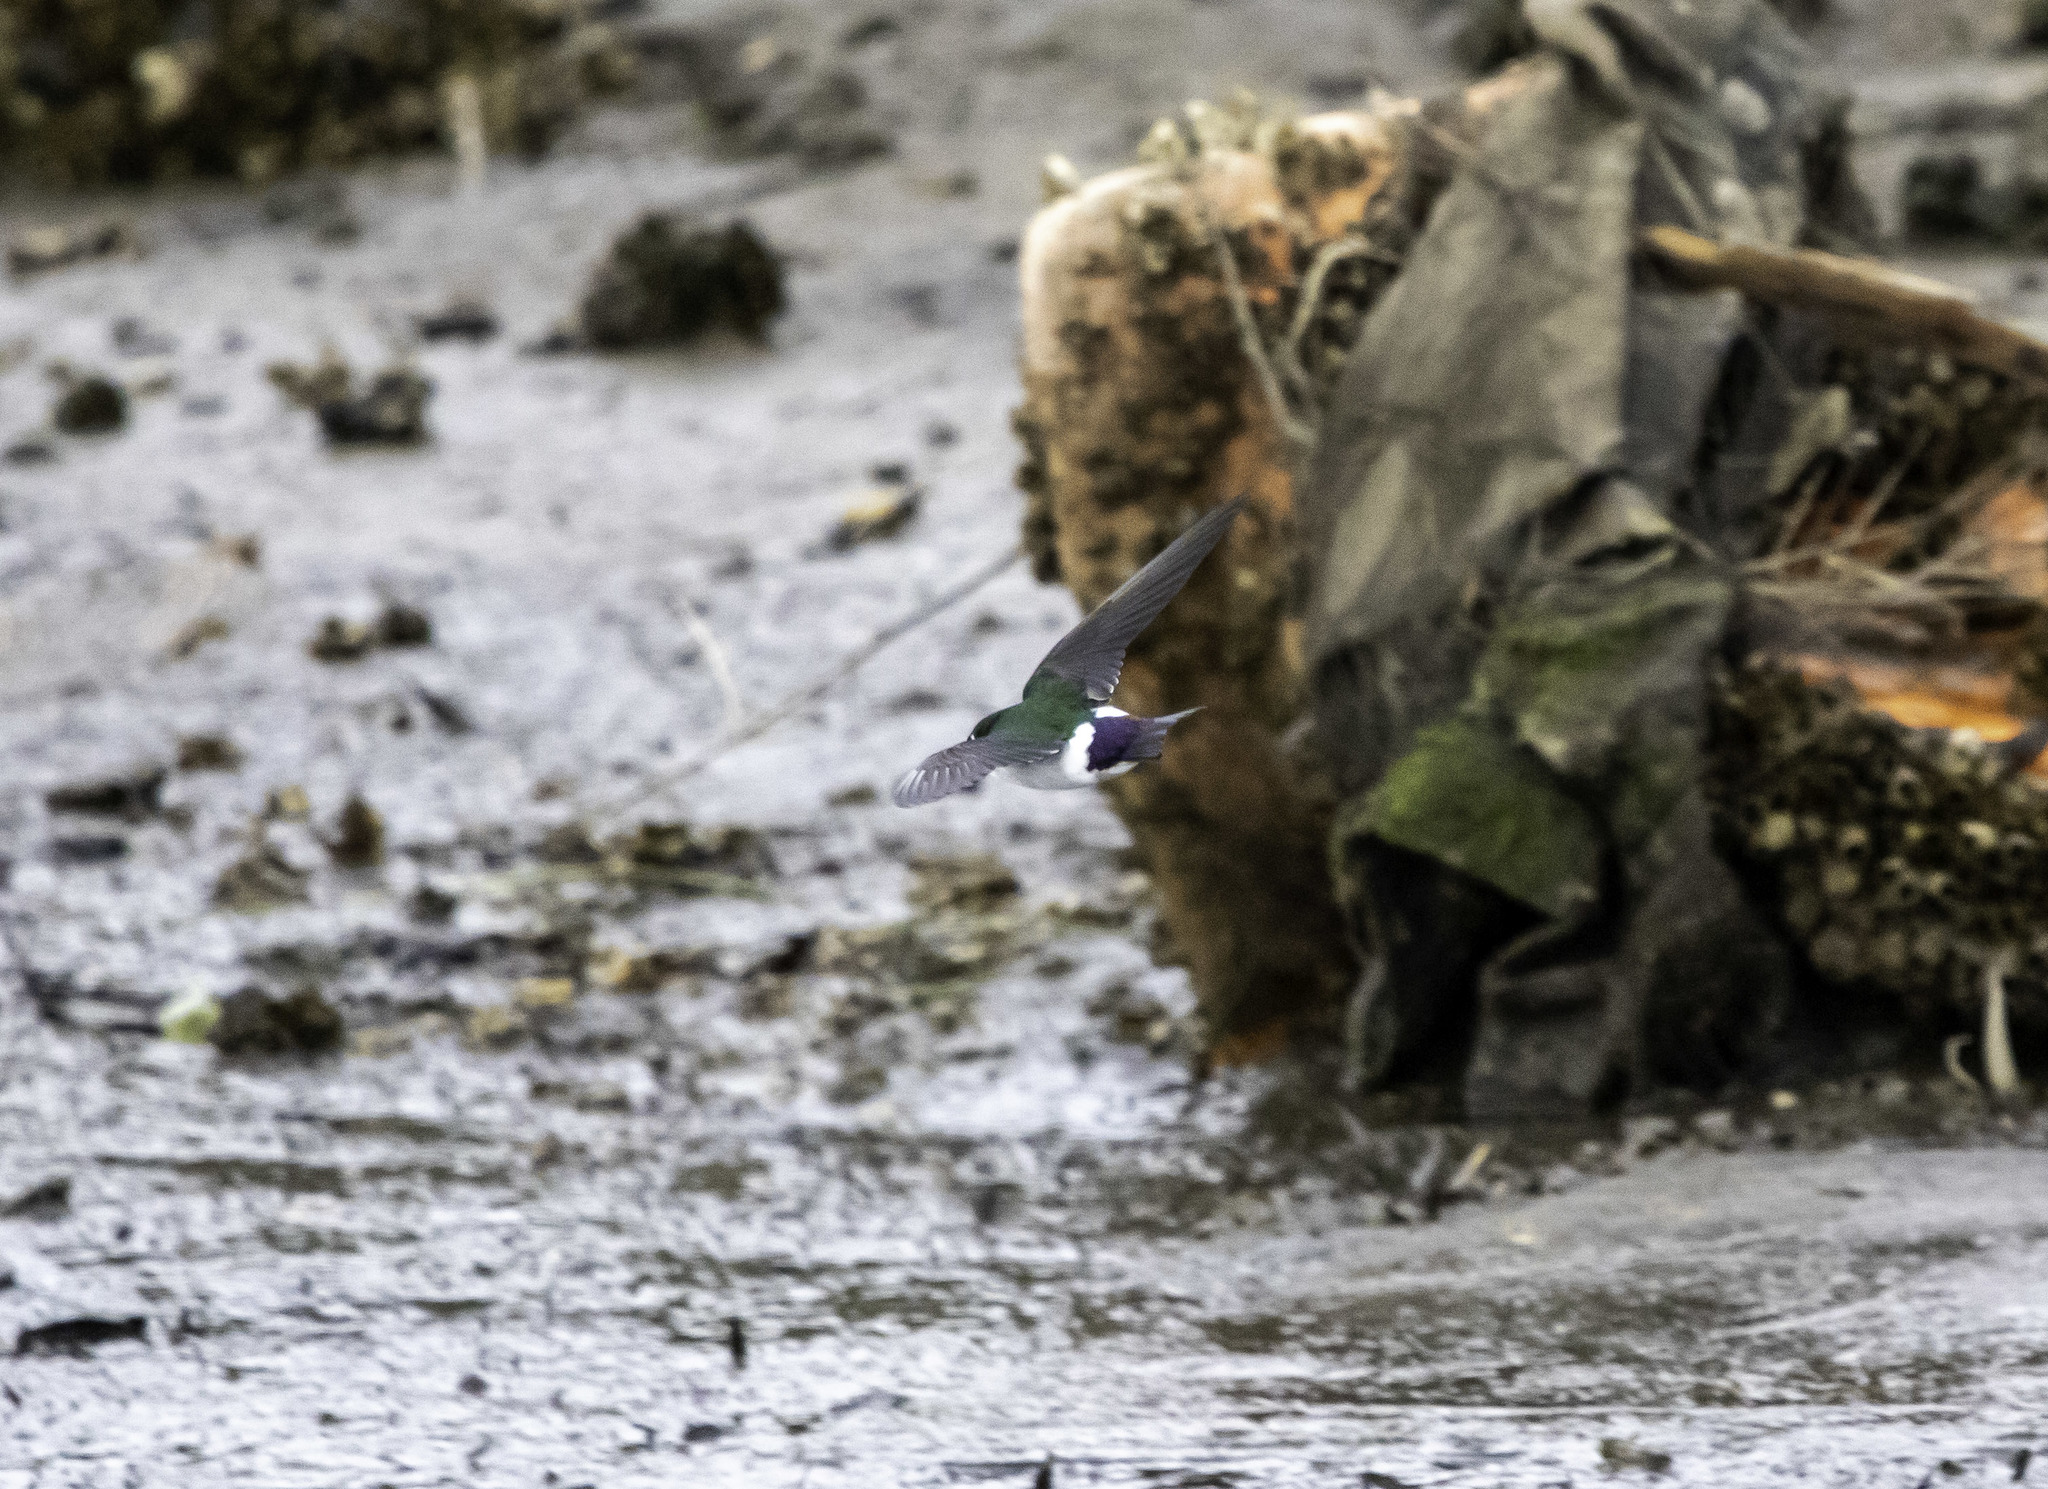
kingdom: Animalia
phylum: Chordata
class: Aves
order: Passeriformes
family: Hirundinidae
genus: Tachycineta
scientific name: Tachycineta thalassina
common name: Violet-green swallow
